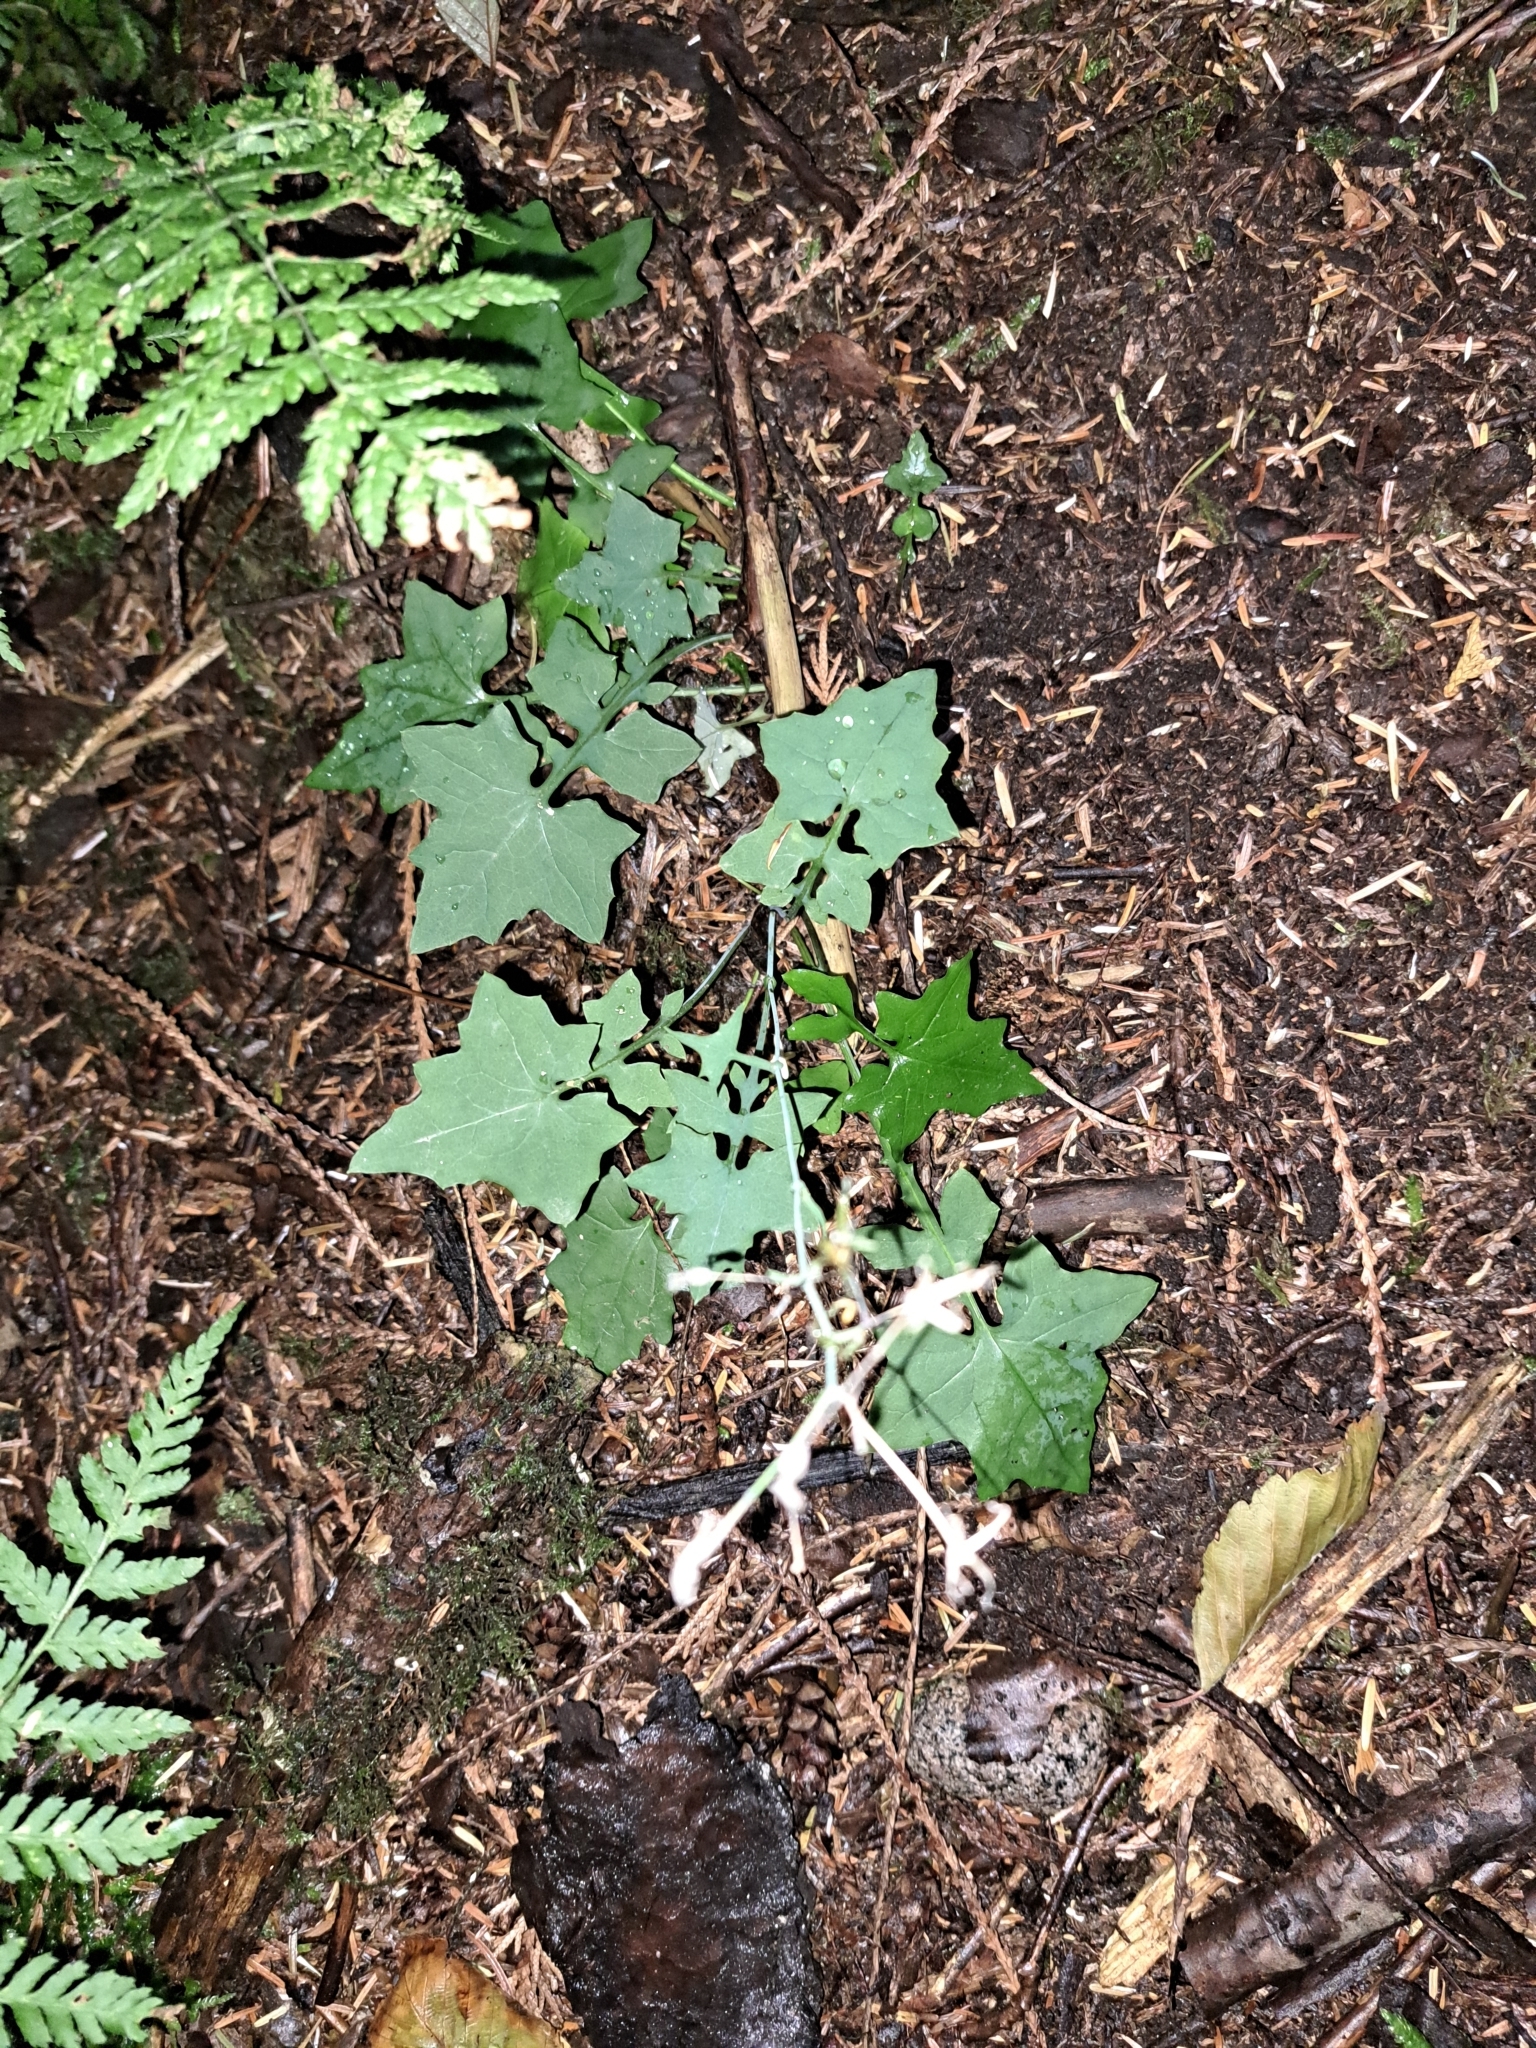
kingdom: Plantae
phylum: Tracheophyta
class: Magnoliopsida
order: Asterales
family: Asteraceae
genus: Mycelis
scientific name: Mycelis muralis
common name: Wall lettuce
